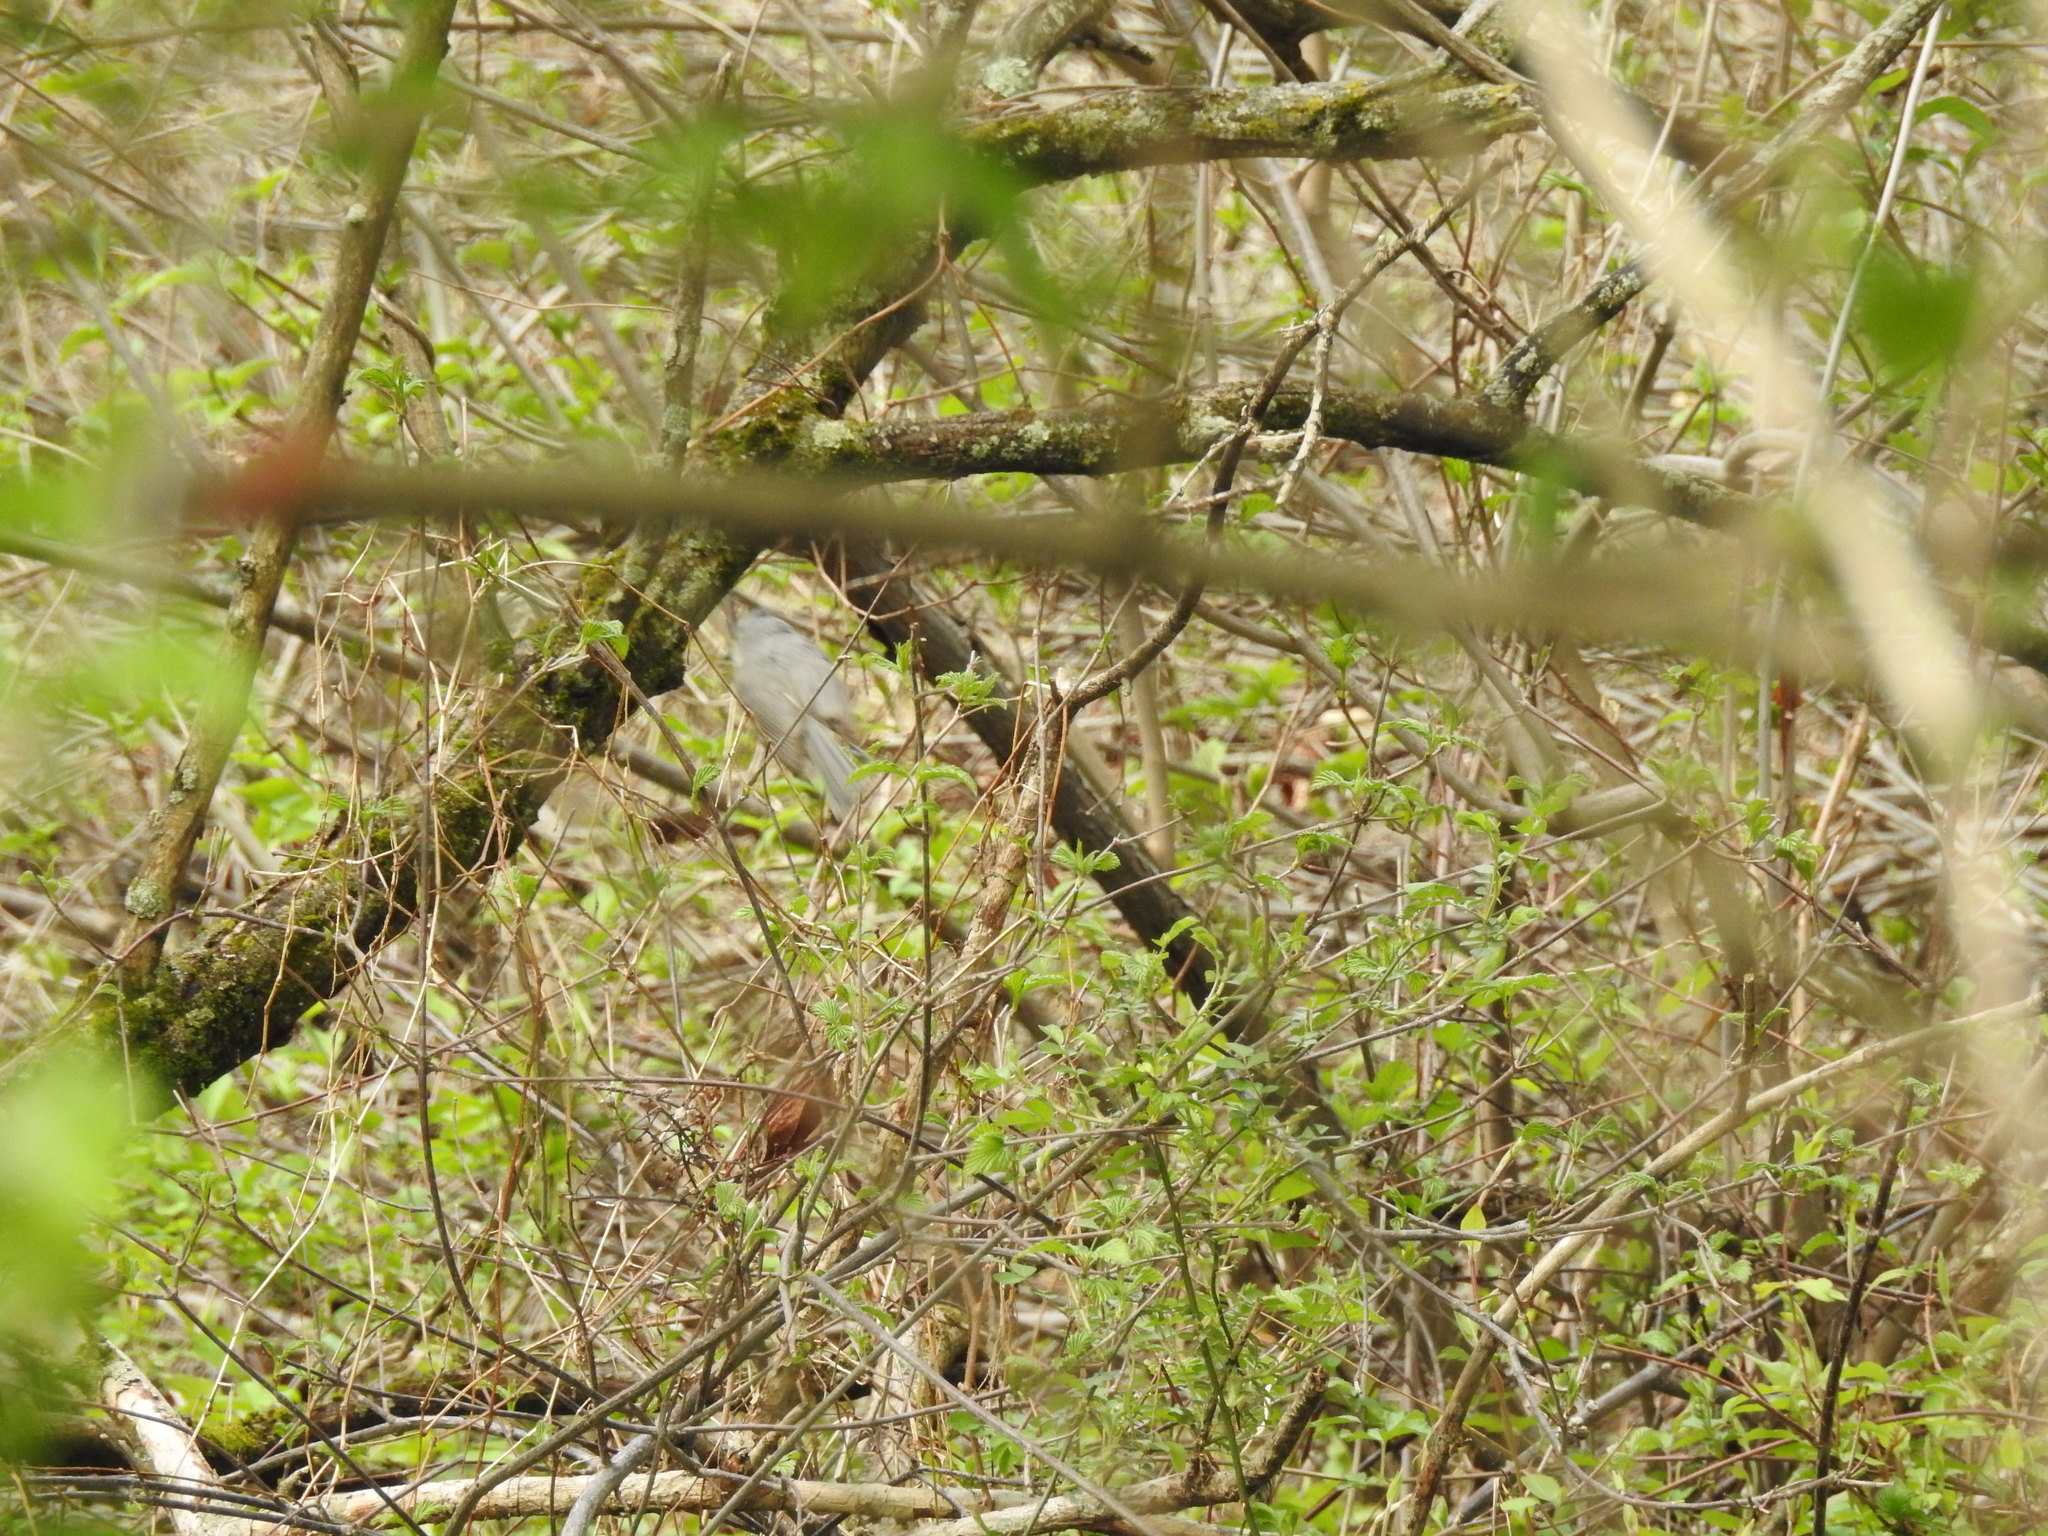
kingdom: Animalia
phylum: Chordata
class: Aves
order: Passeriformes
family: Paridae
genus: Baeolophus
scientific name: Baeolophus bicolor
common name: Tufted titmouse
